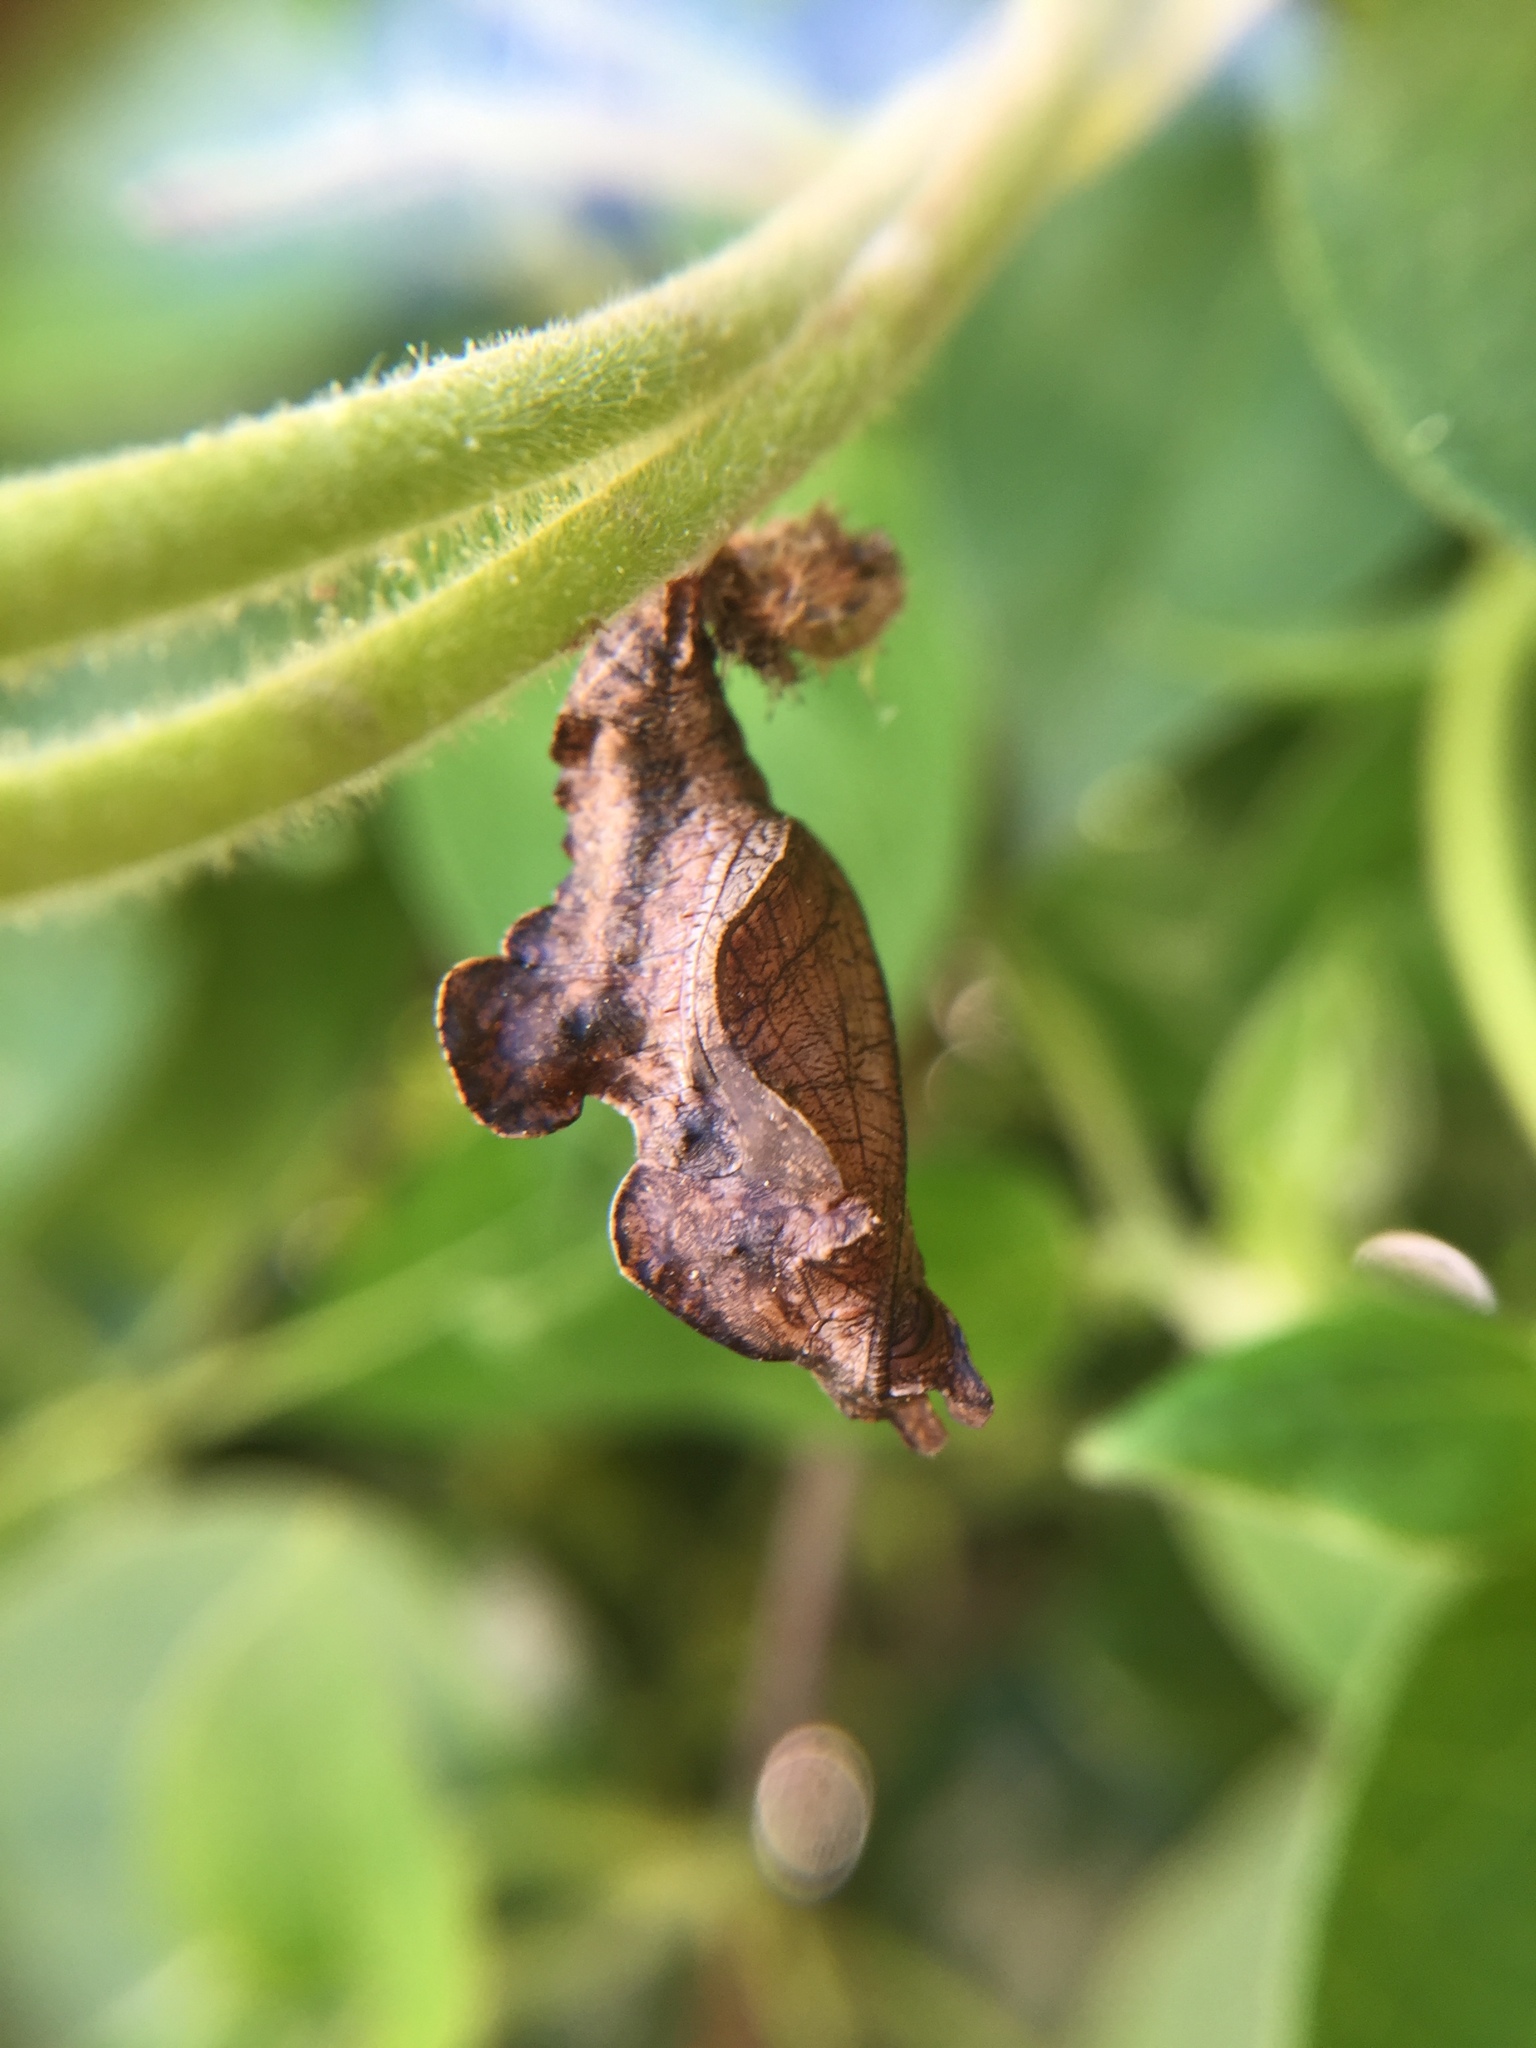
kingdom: Animalia
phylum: Arthropoda
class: Insecta
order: Lepidoptera
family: Nymphalidae
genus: Limenitis
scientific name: Limenitis reducta
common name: Southern white admiral
